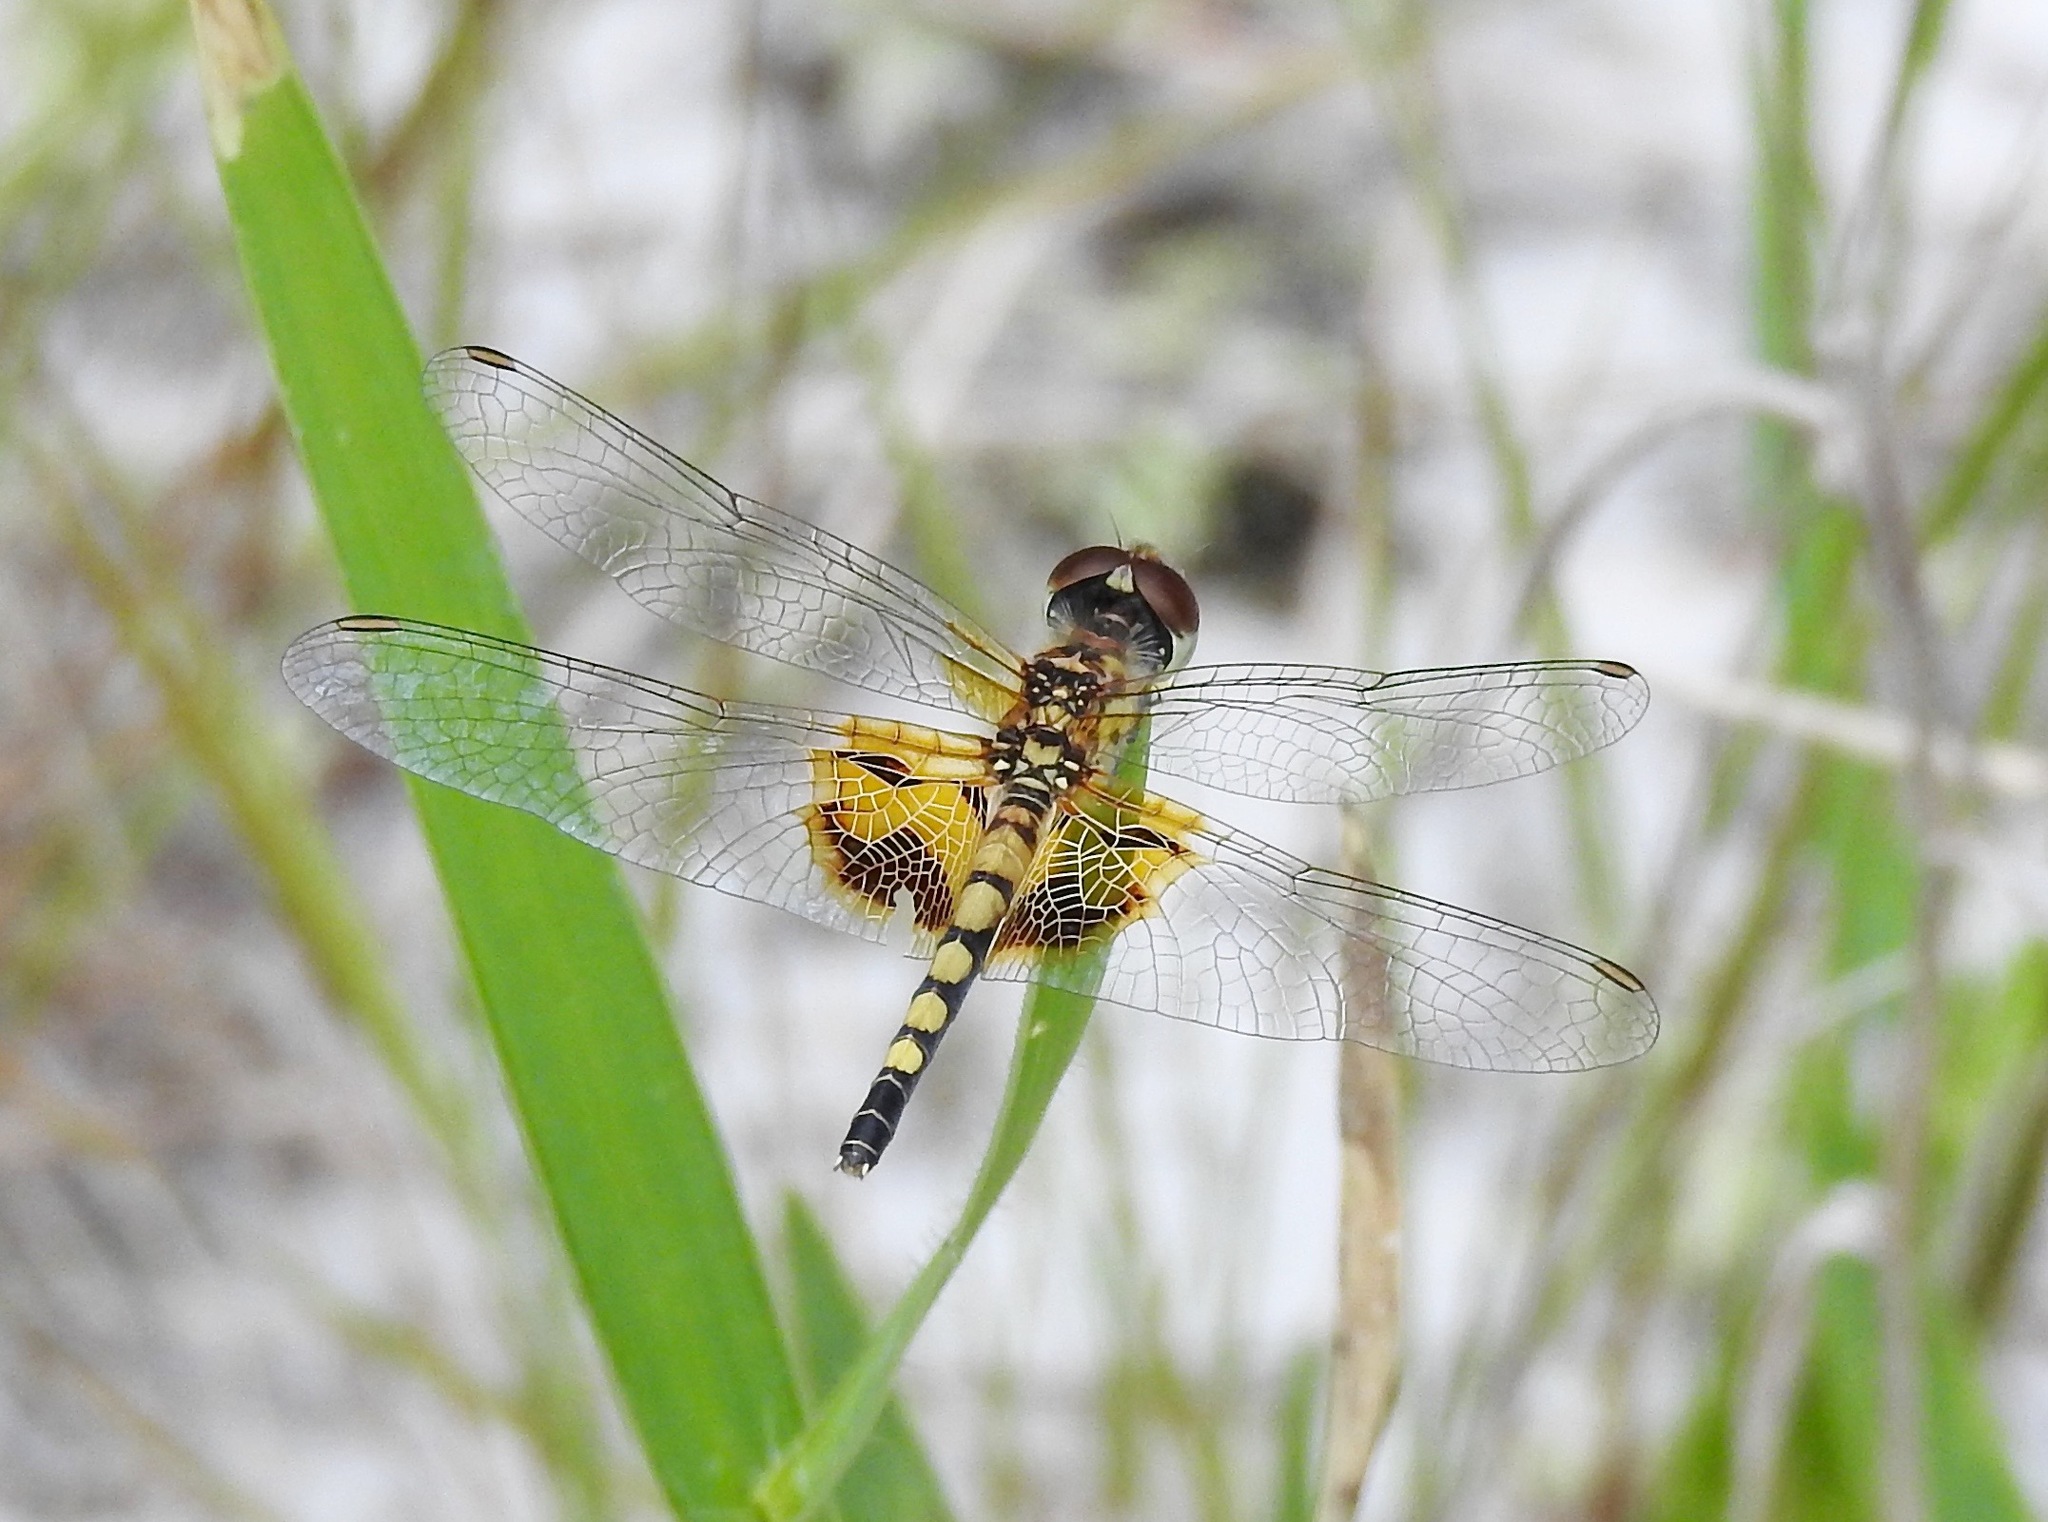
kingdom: Animalia
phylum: Arthropoda
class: Insecta
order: Odonata
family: Libellulidae
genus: Celithemis
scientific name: Celithemis amanda
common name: Amanda's pennant
